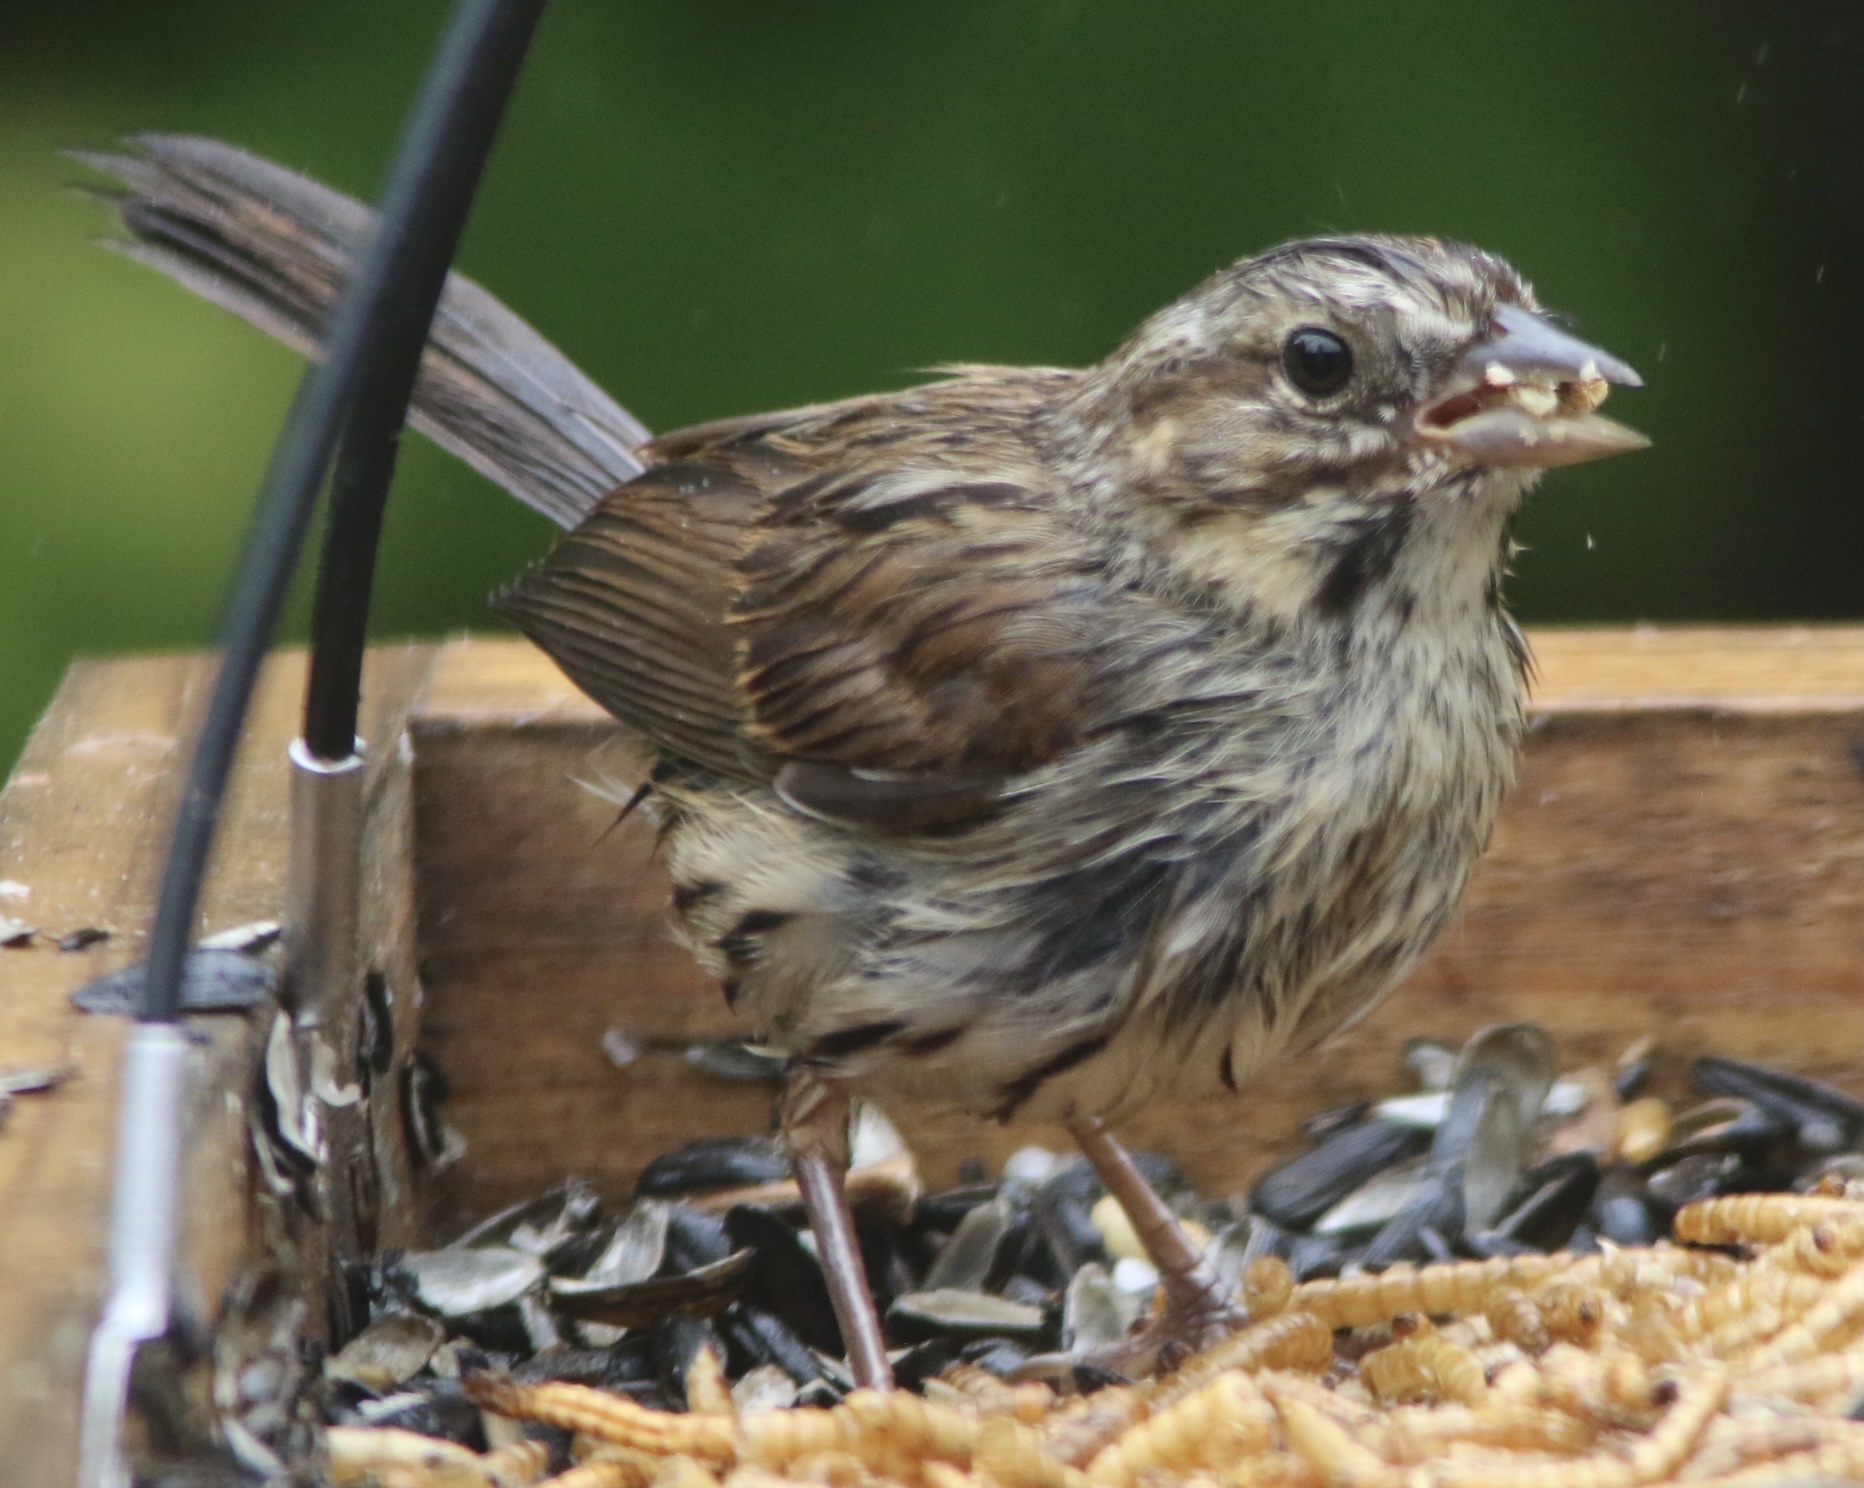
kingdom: Animalia
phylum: Chordata
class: Aves
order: Passeriformes
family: Passerellidae
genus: Melospiza
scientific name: Melospiza melodia
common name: Song sparrow
